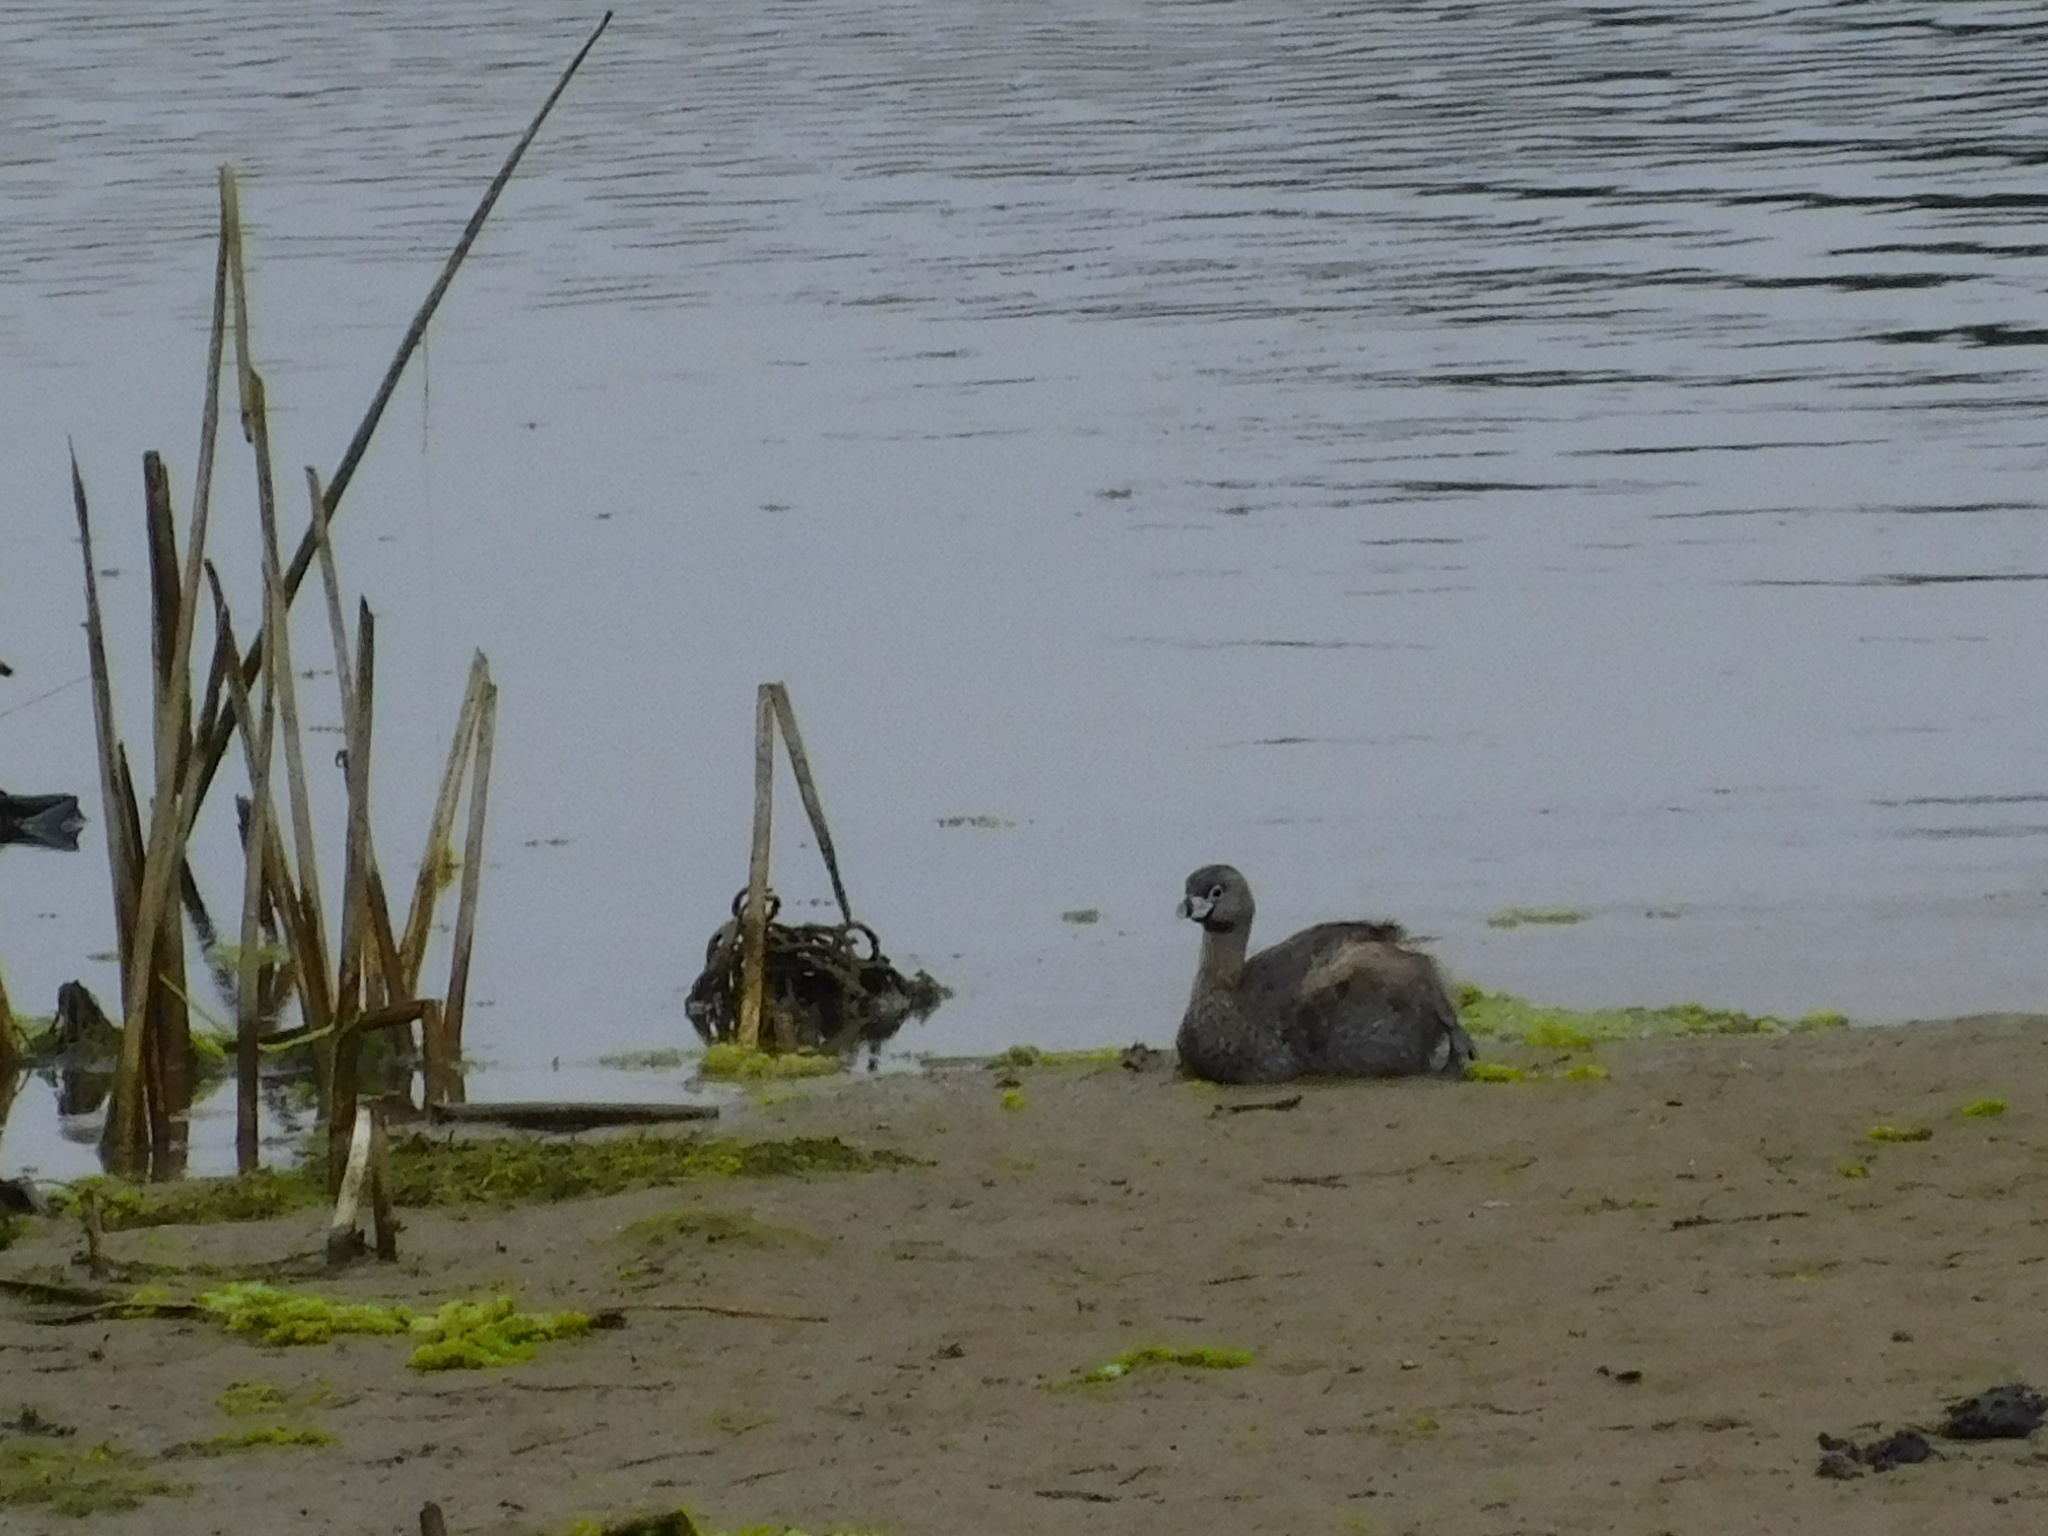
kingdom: Animalia
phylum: Chordata
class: Aves
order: Podicipediformes
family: Podicipedidae
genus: Podilymbus
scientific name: Podilymbus podiceps
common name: Pied-billed grebe
